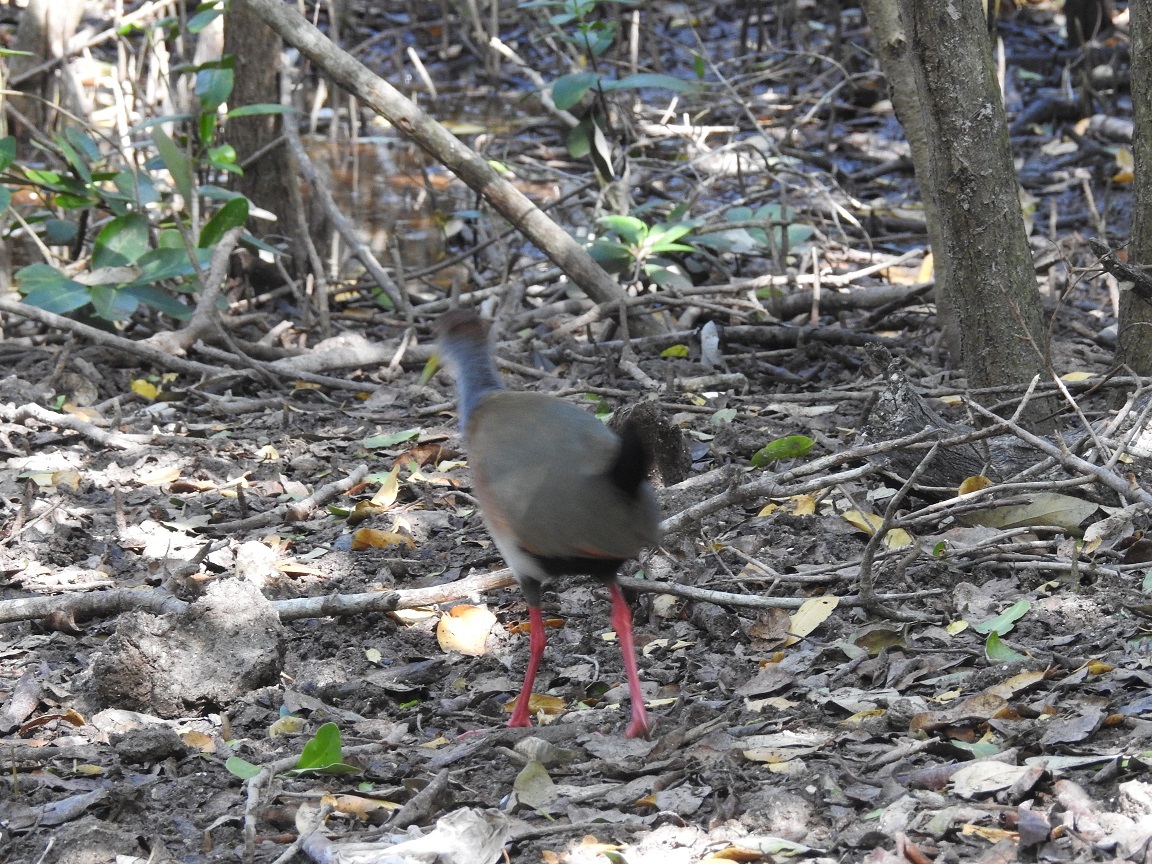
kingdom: Animalia
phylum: Chordata
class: Aves
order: Gruiformes
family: Rallidae
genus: Aramides
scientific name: Aramides albiventris
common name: Russet-naped wood-rail
